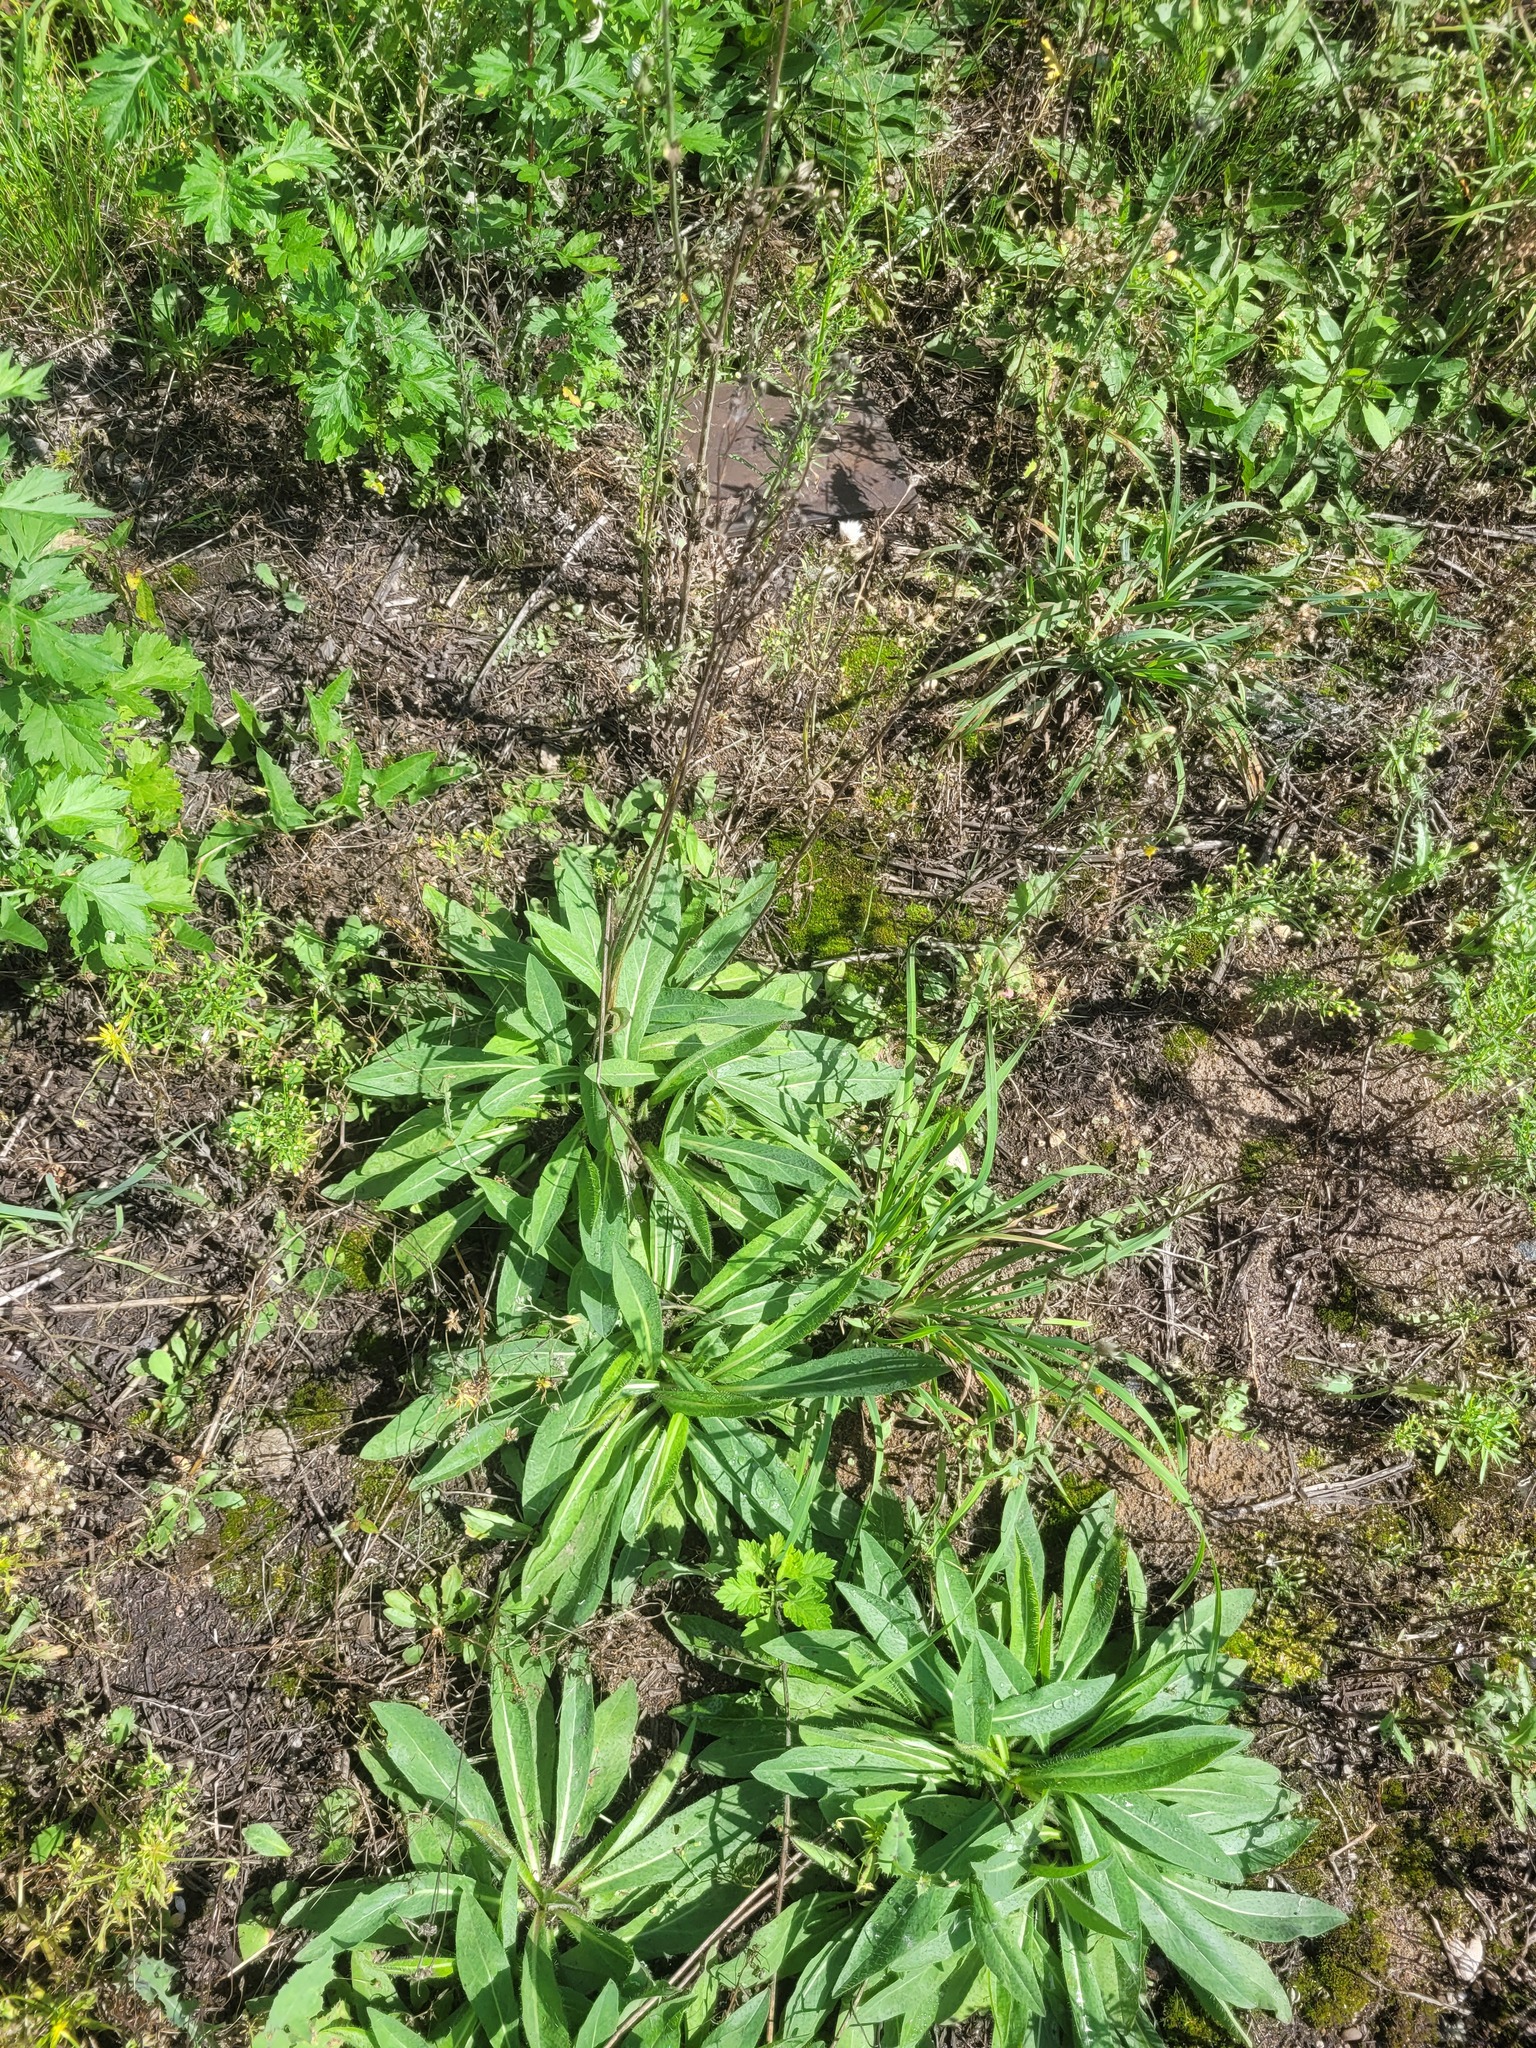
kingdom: Plantae
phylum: Tracheophyta
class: Magnoliopsida
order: Asterales
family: Asteraceae
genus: Pilosella
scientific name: Pilosella
